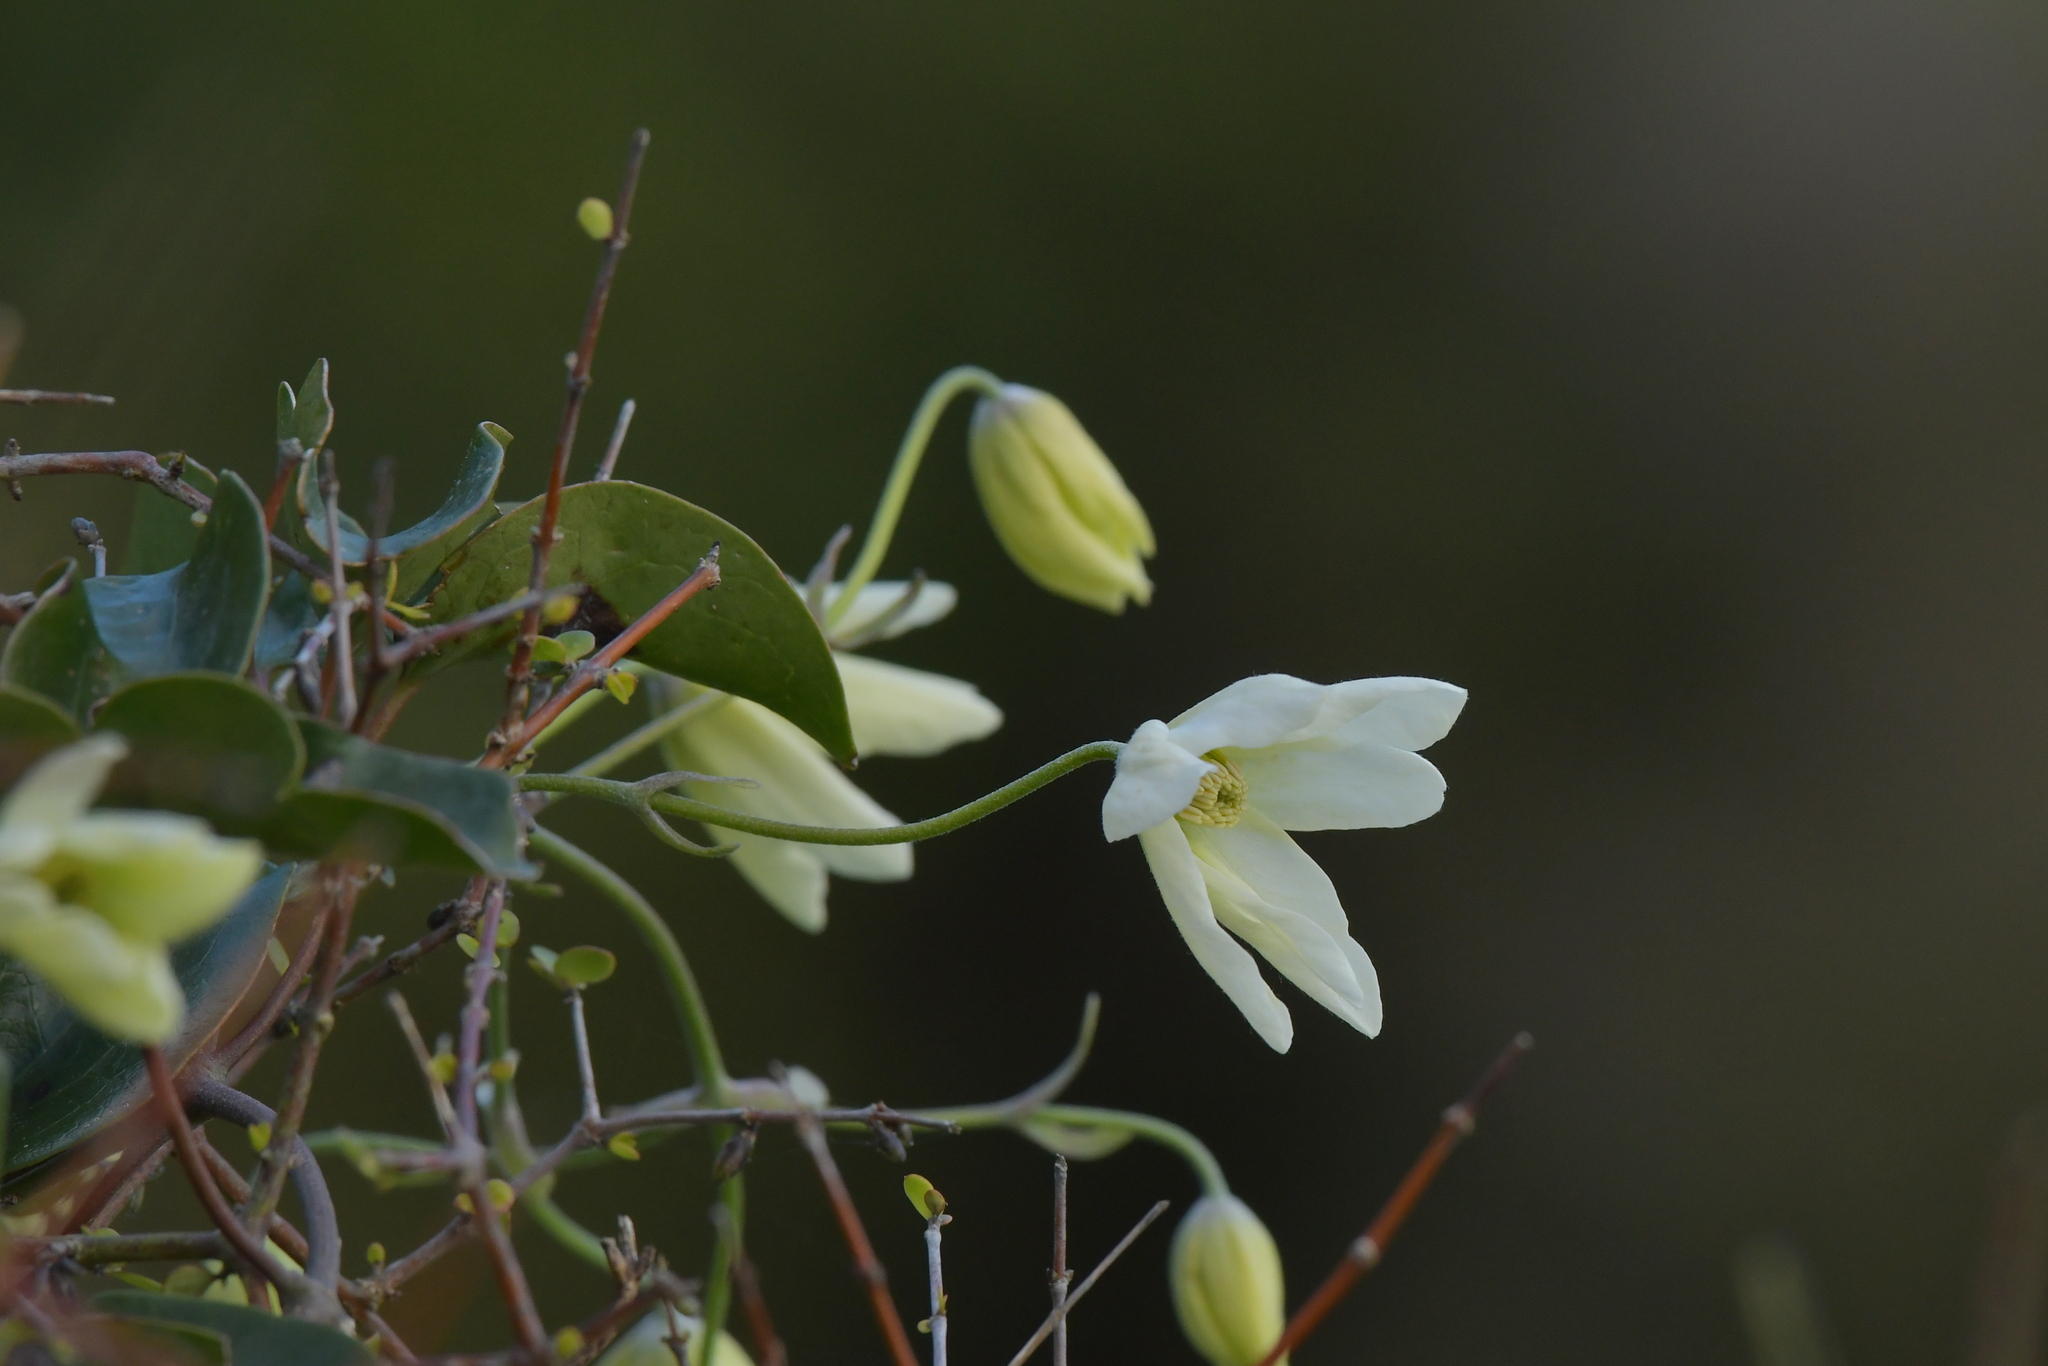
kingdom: Plantae
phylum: Tracheophyta
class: Magnoliopsida
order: Ranunculales
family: Ranunculaceae
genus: Clematis
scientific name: Clematis paniculata
